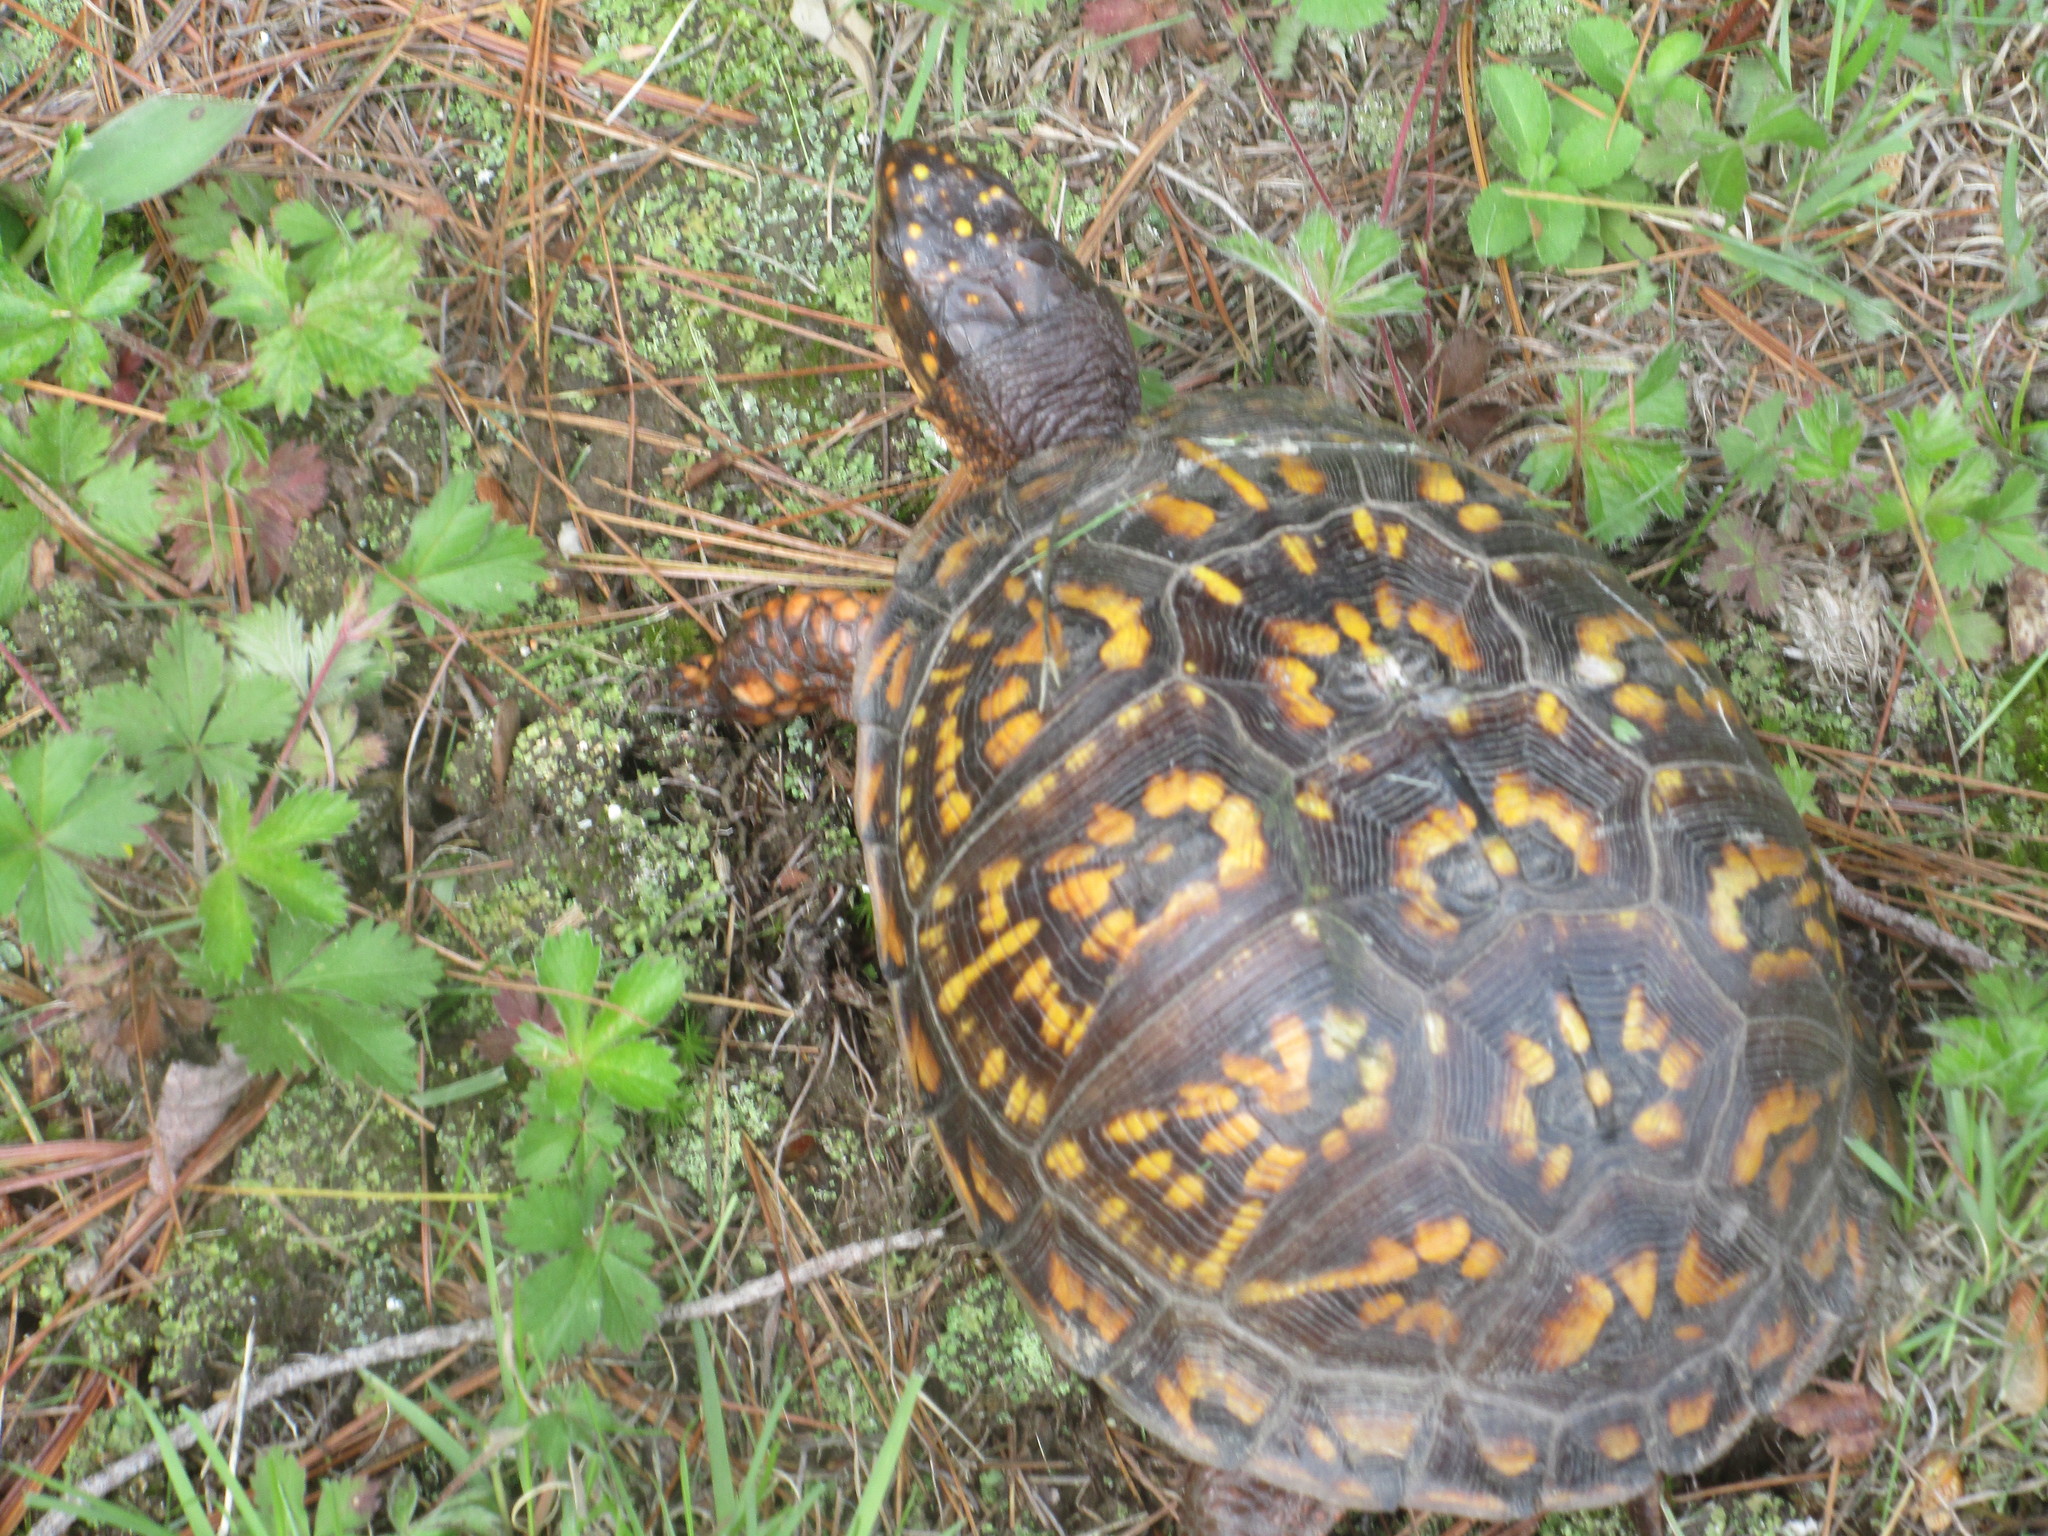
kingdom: Animalia
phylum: Chordata
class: Testudines
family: Emydidae
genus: Terrapene
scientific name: Terrapene carolina
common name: Common box turtle
